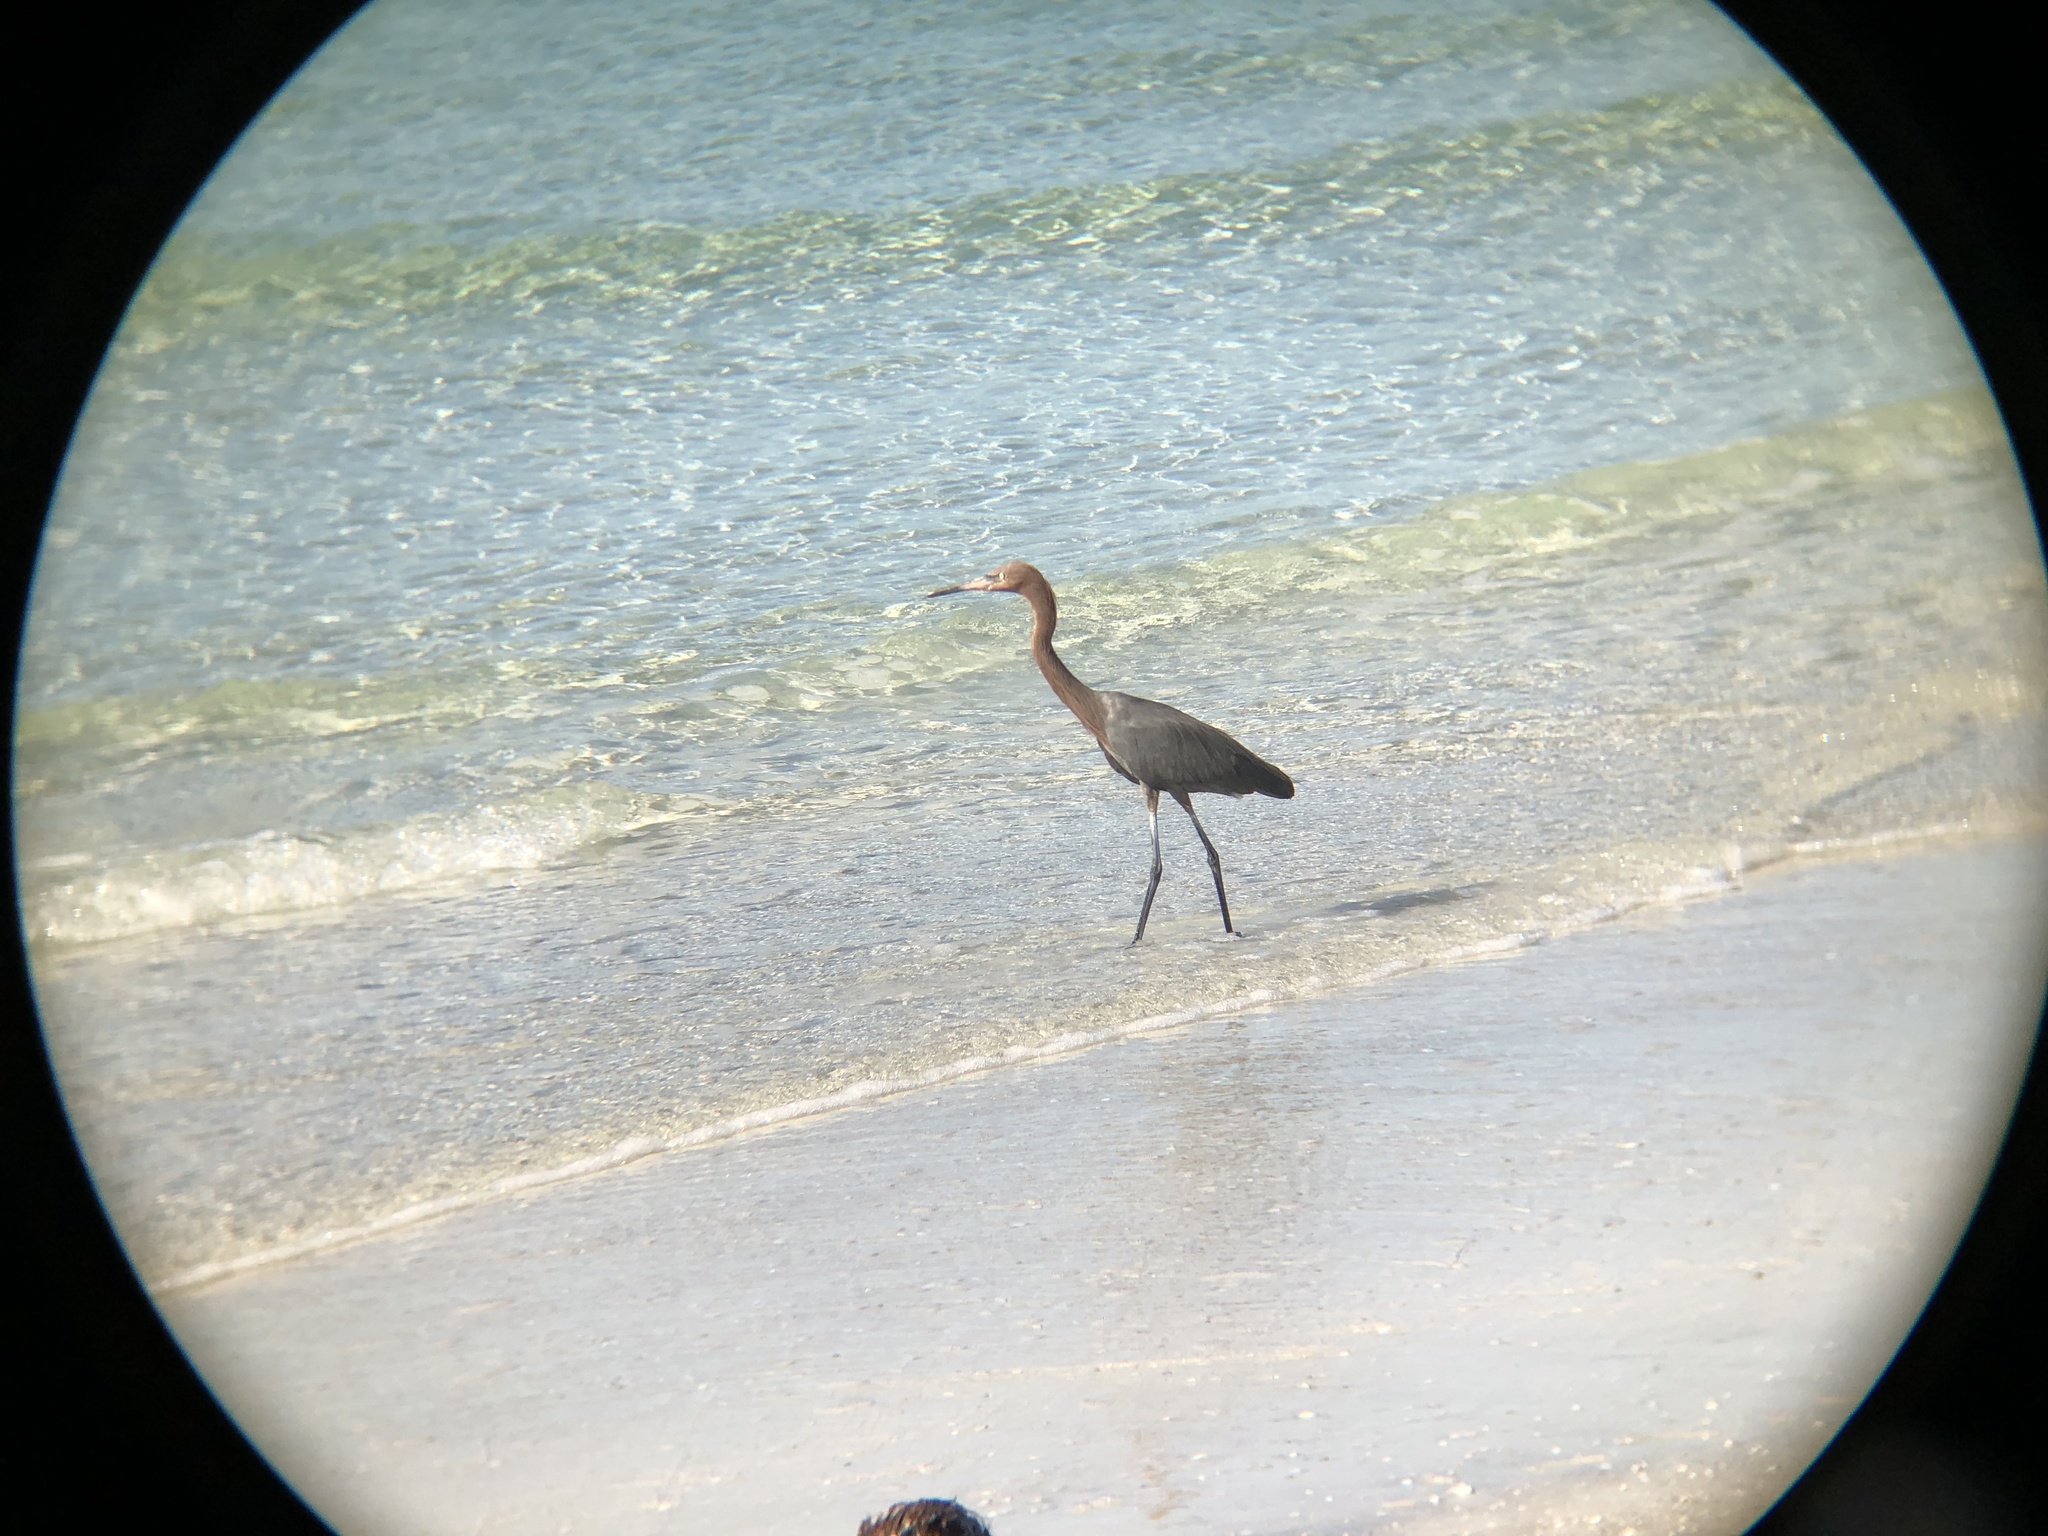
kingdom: Animalia
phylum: Chordata
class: Aves
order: Pelecaniformes
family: Ardeidae
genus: Egretta
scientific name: Egretta rufescens
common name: Reddish egret
